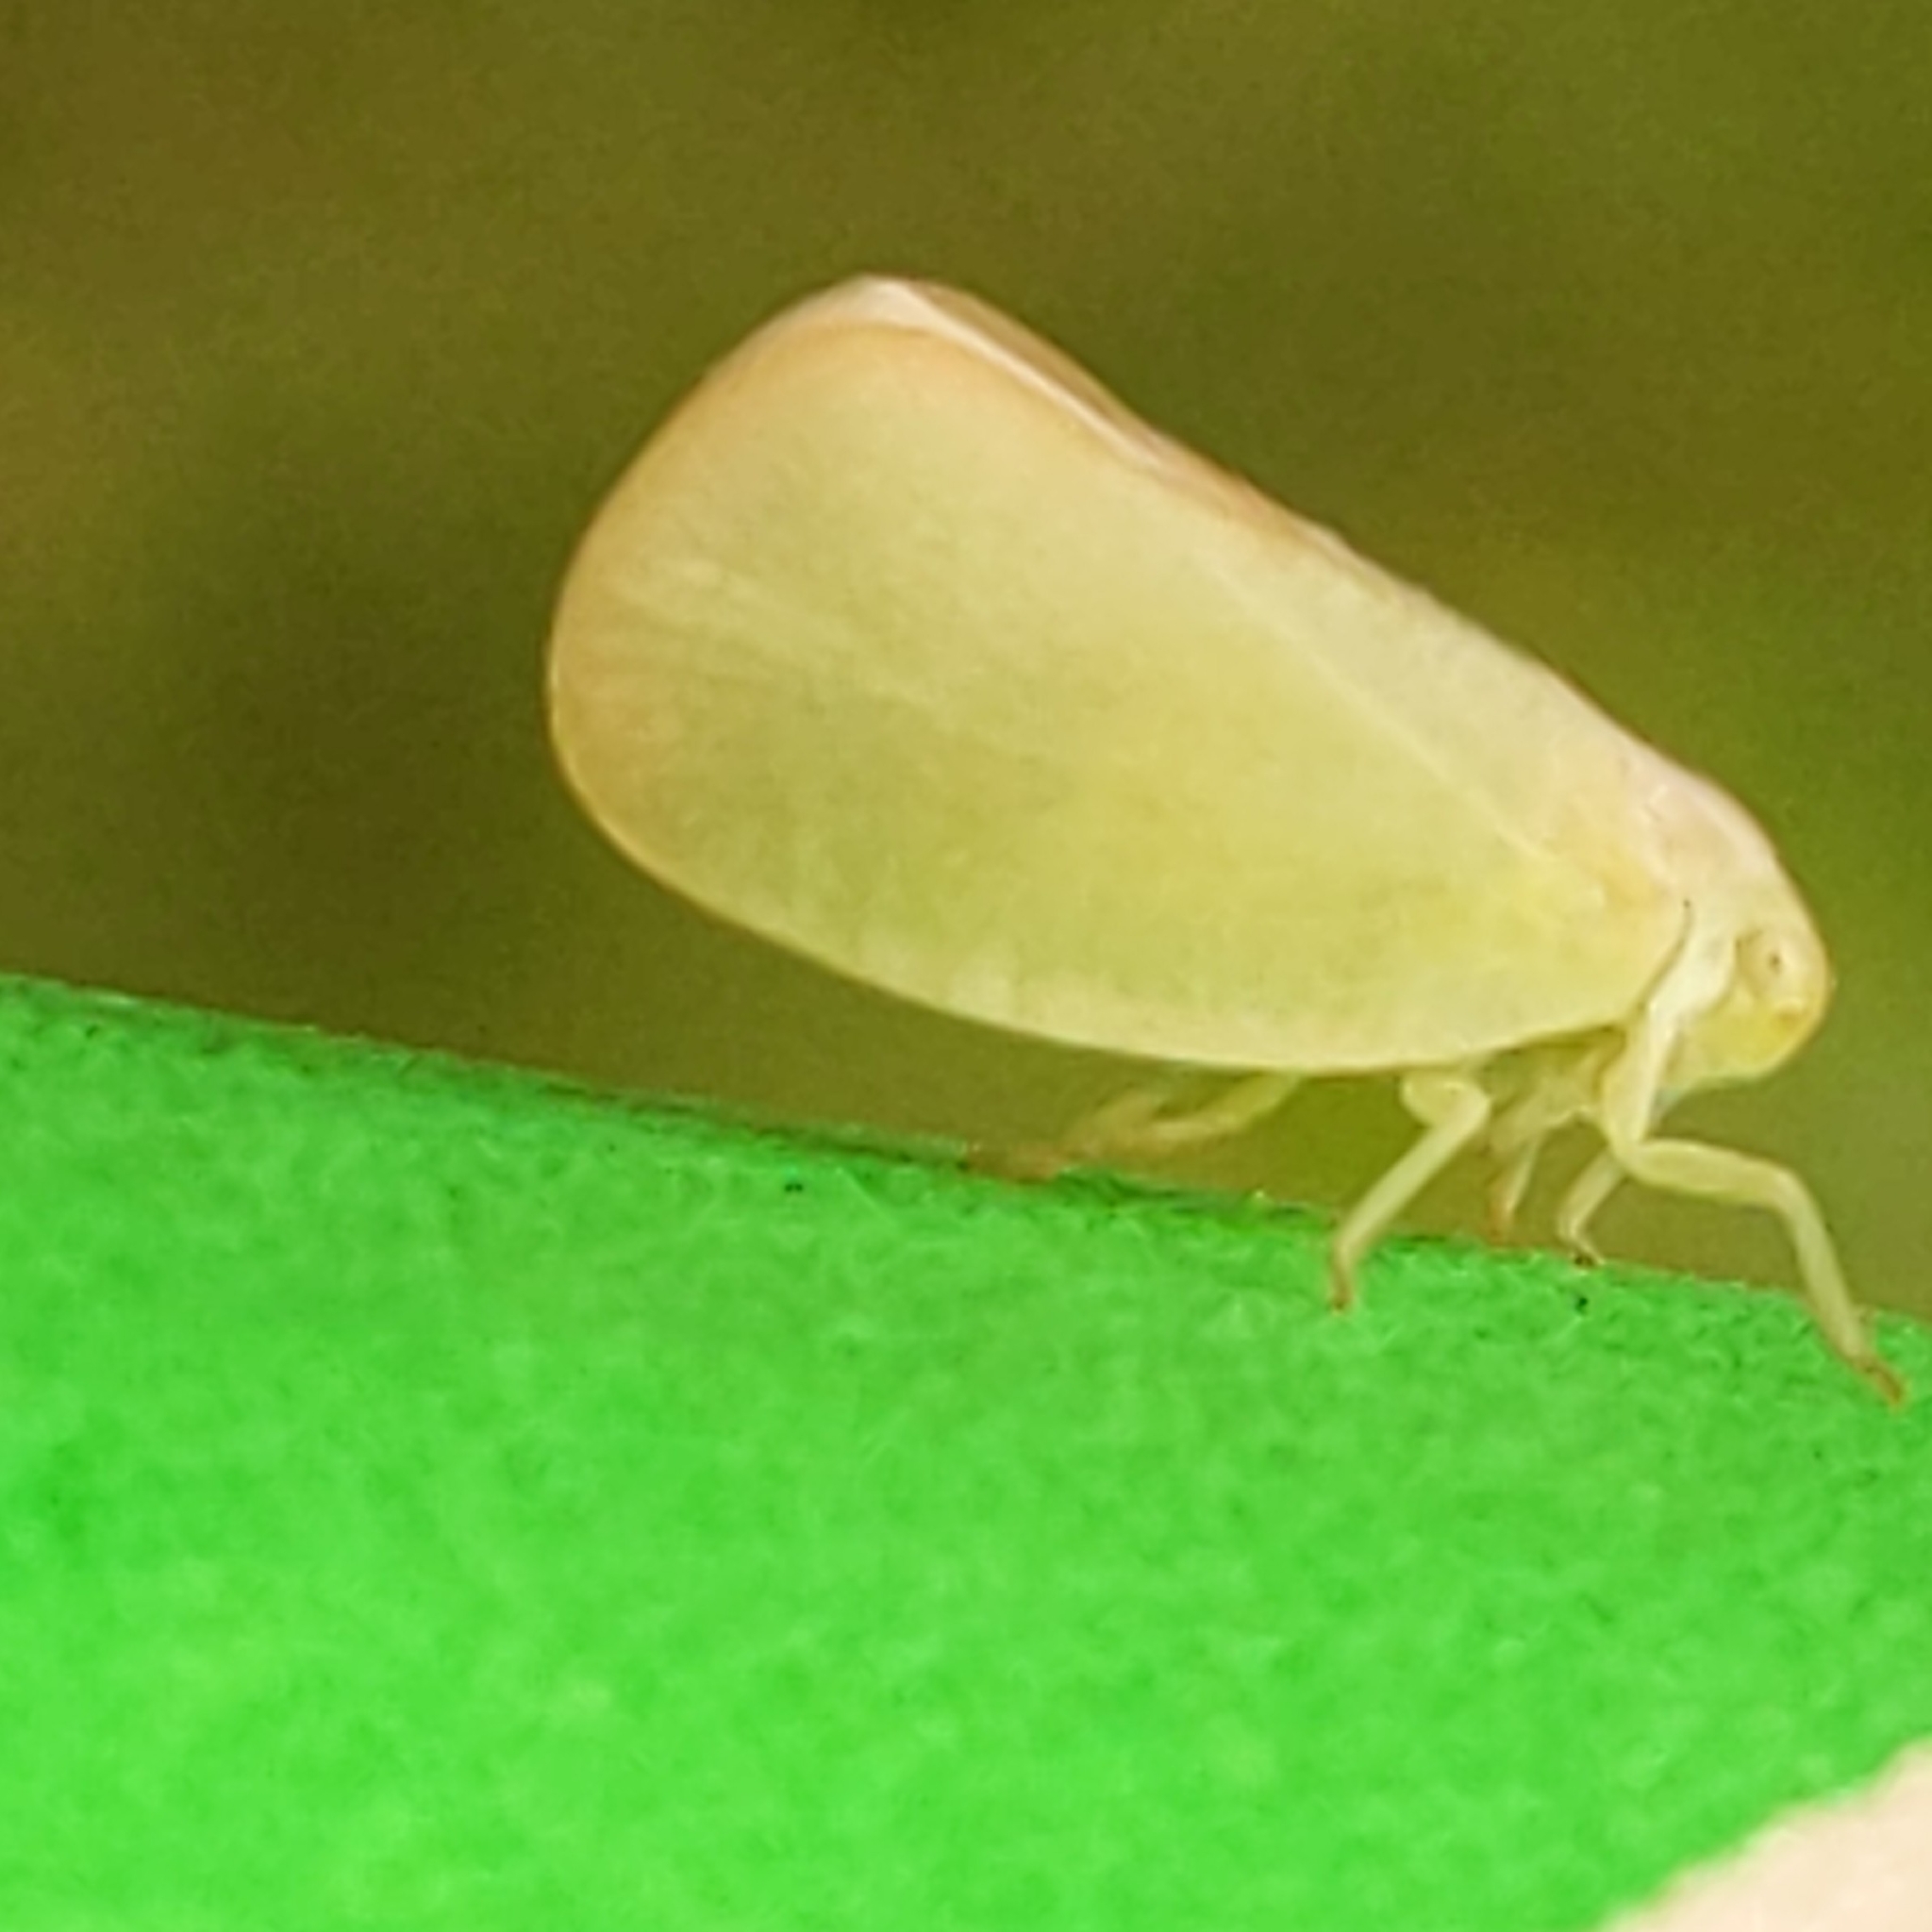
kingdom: Animalia
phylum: Arthropoda
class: Insecta
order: Hemiptera
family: Flatidae
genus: Ormenoides
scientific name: Ormenoides venusta
